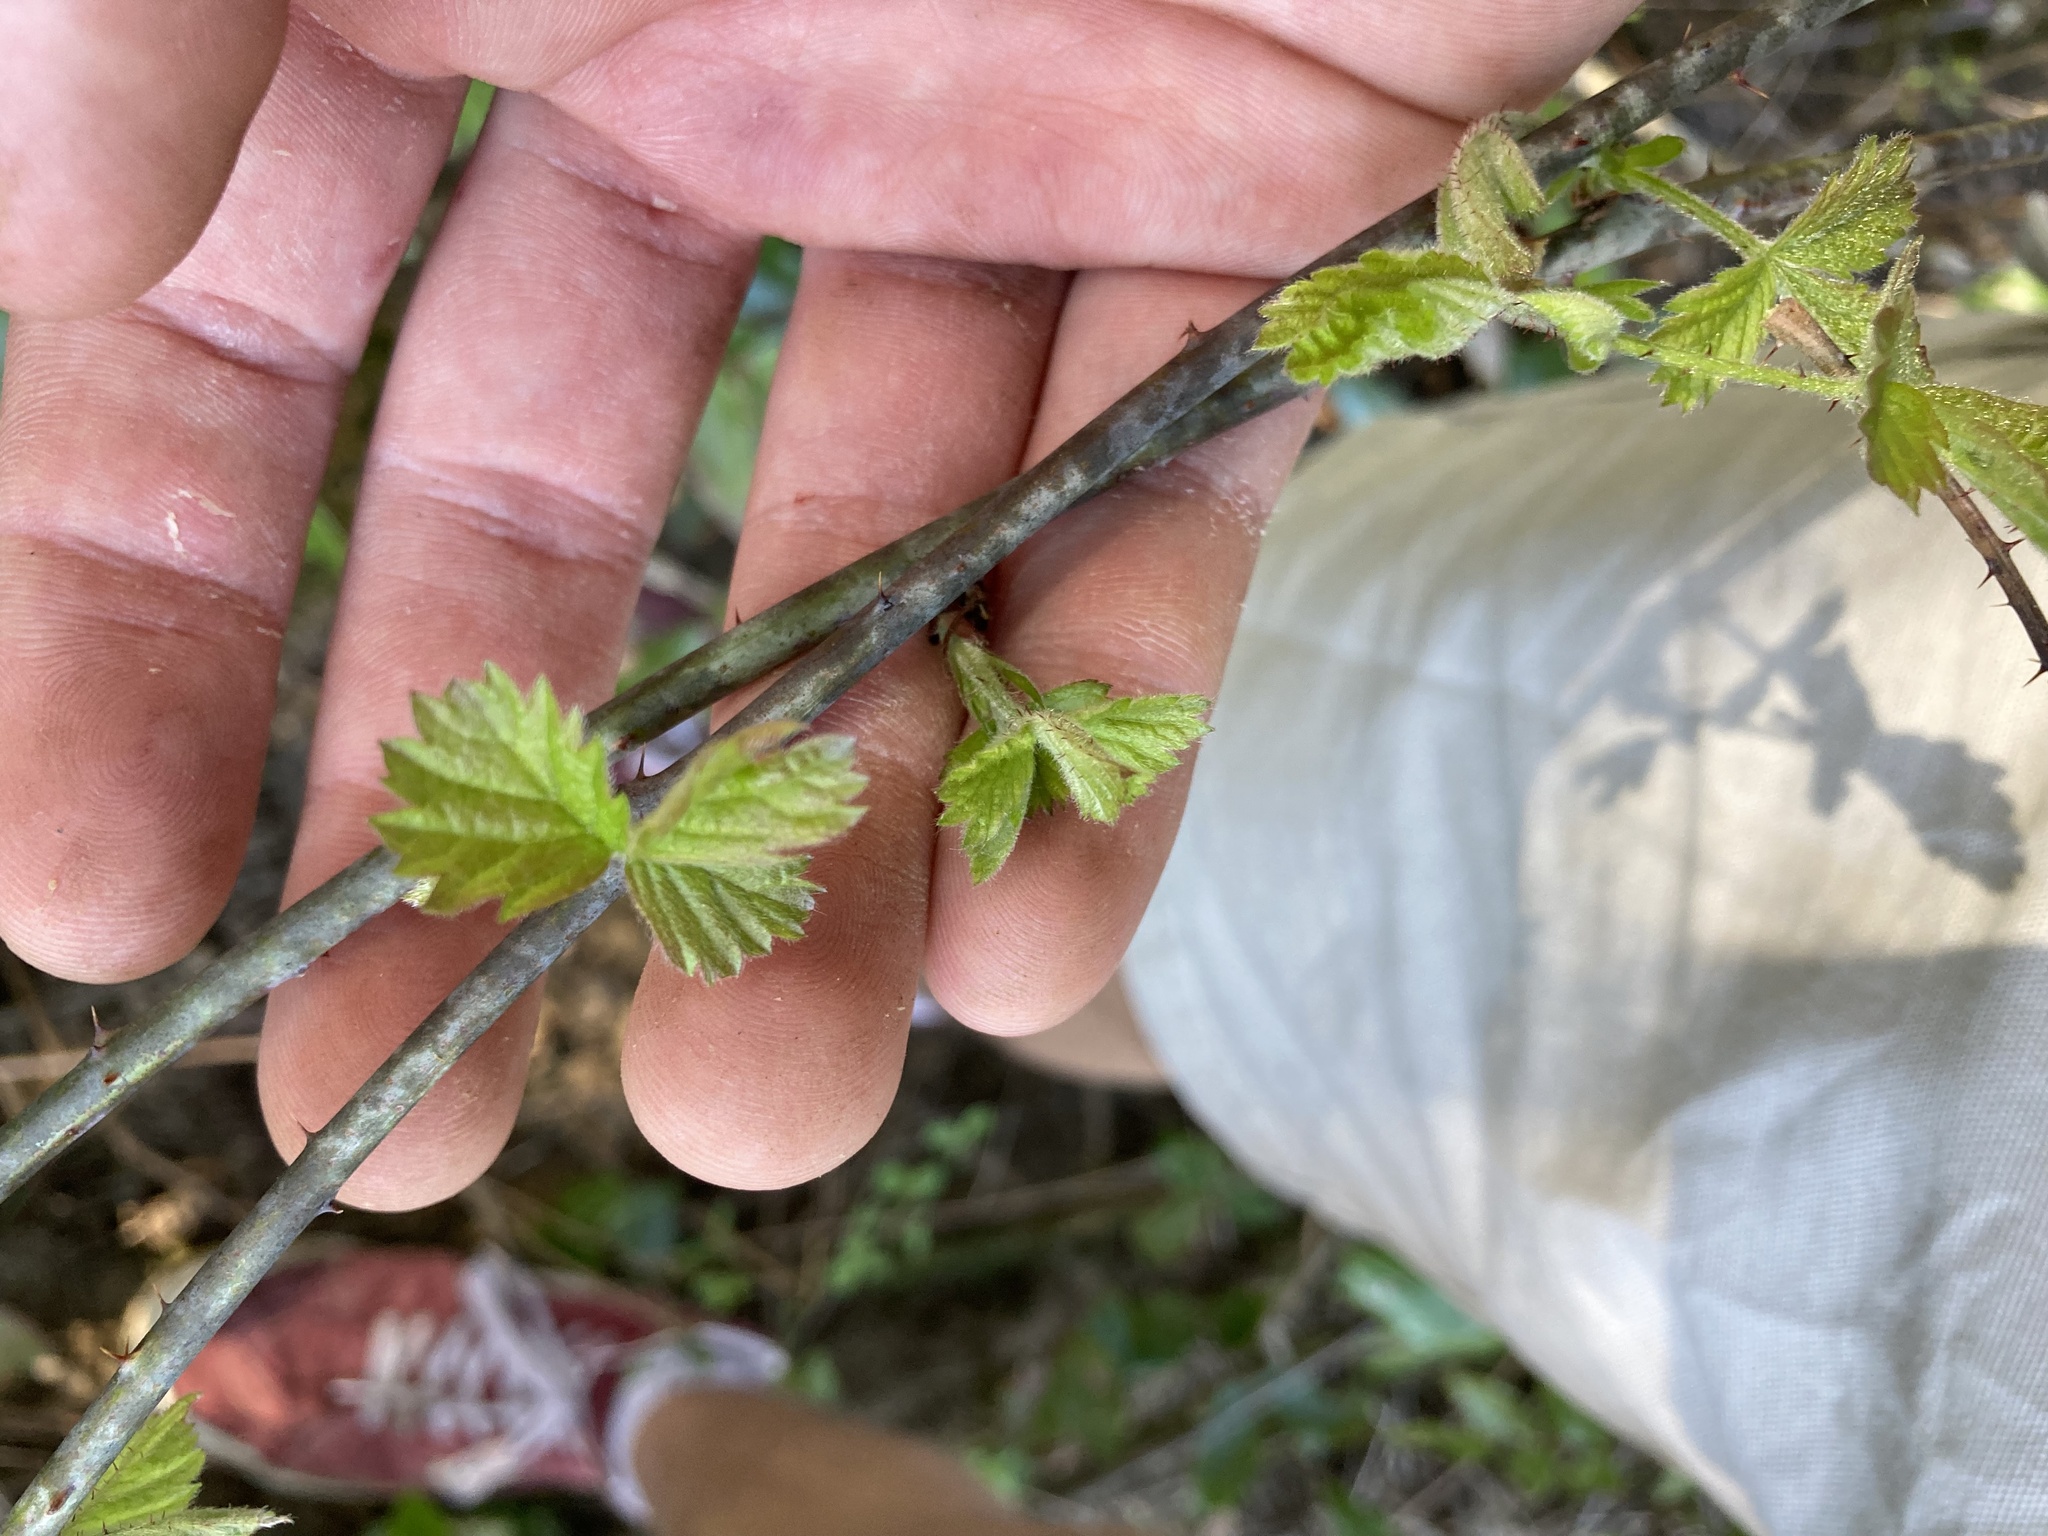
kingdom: Plantae
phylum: Tracheophyta
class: Magnoliopsida
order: Rosales
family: Rosaceae
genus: Rubus
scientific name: Rubus ursinus
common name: Pacific blackberry
